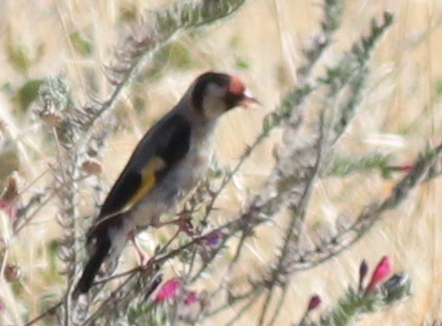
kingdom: Animalia
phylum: Chordata
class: Aves
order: Passeriformes
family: Fringillidae
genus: Carduelis
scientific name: Carduelis carduelis
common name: European goldfinch
